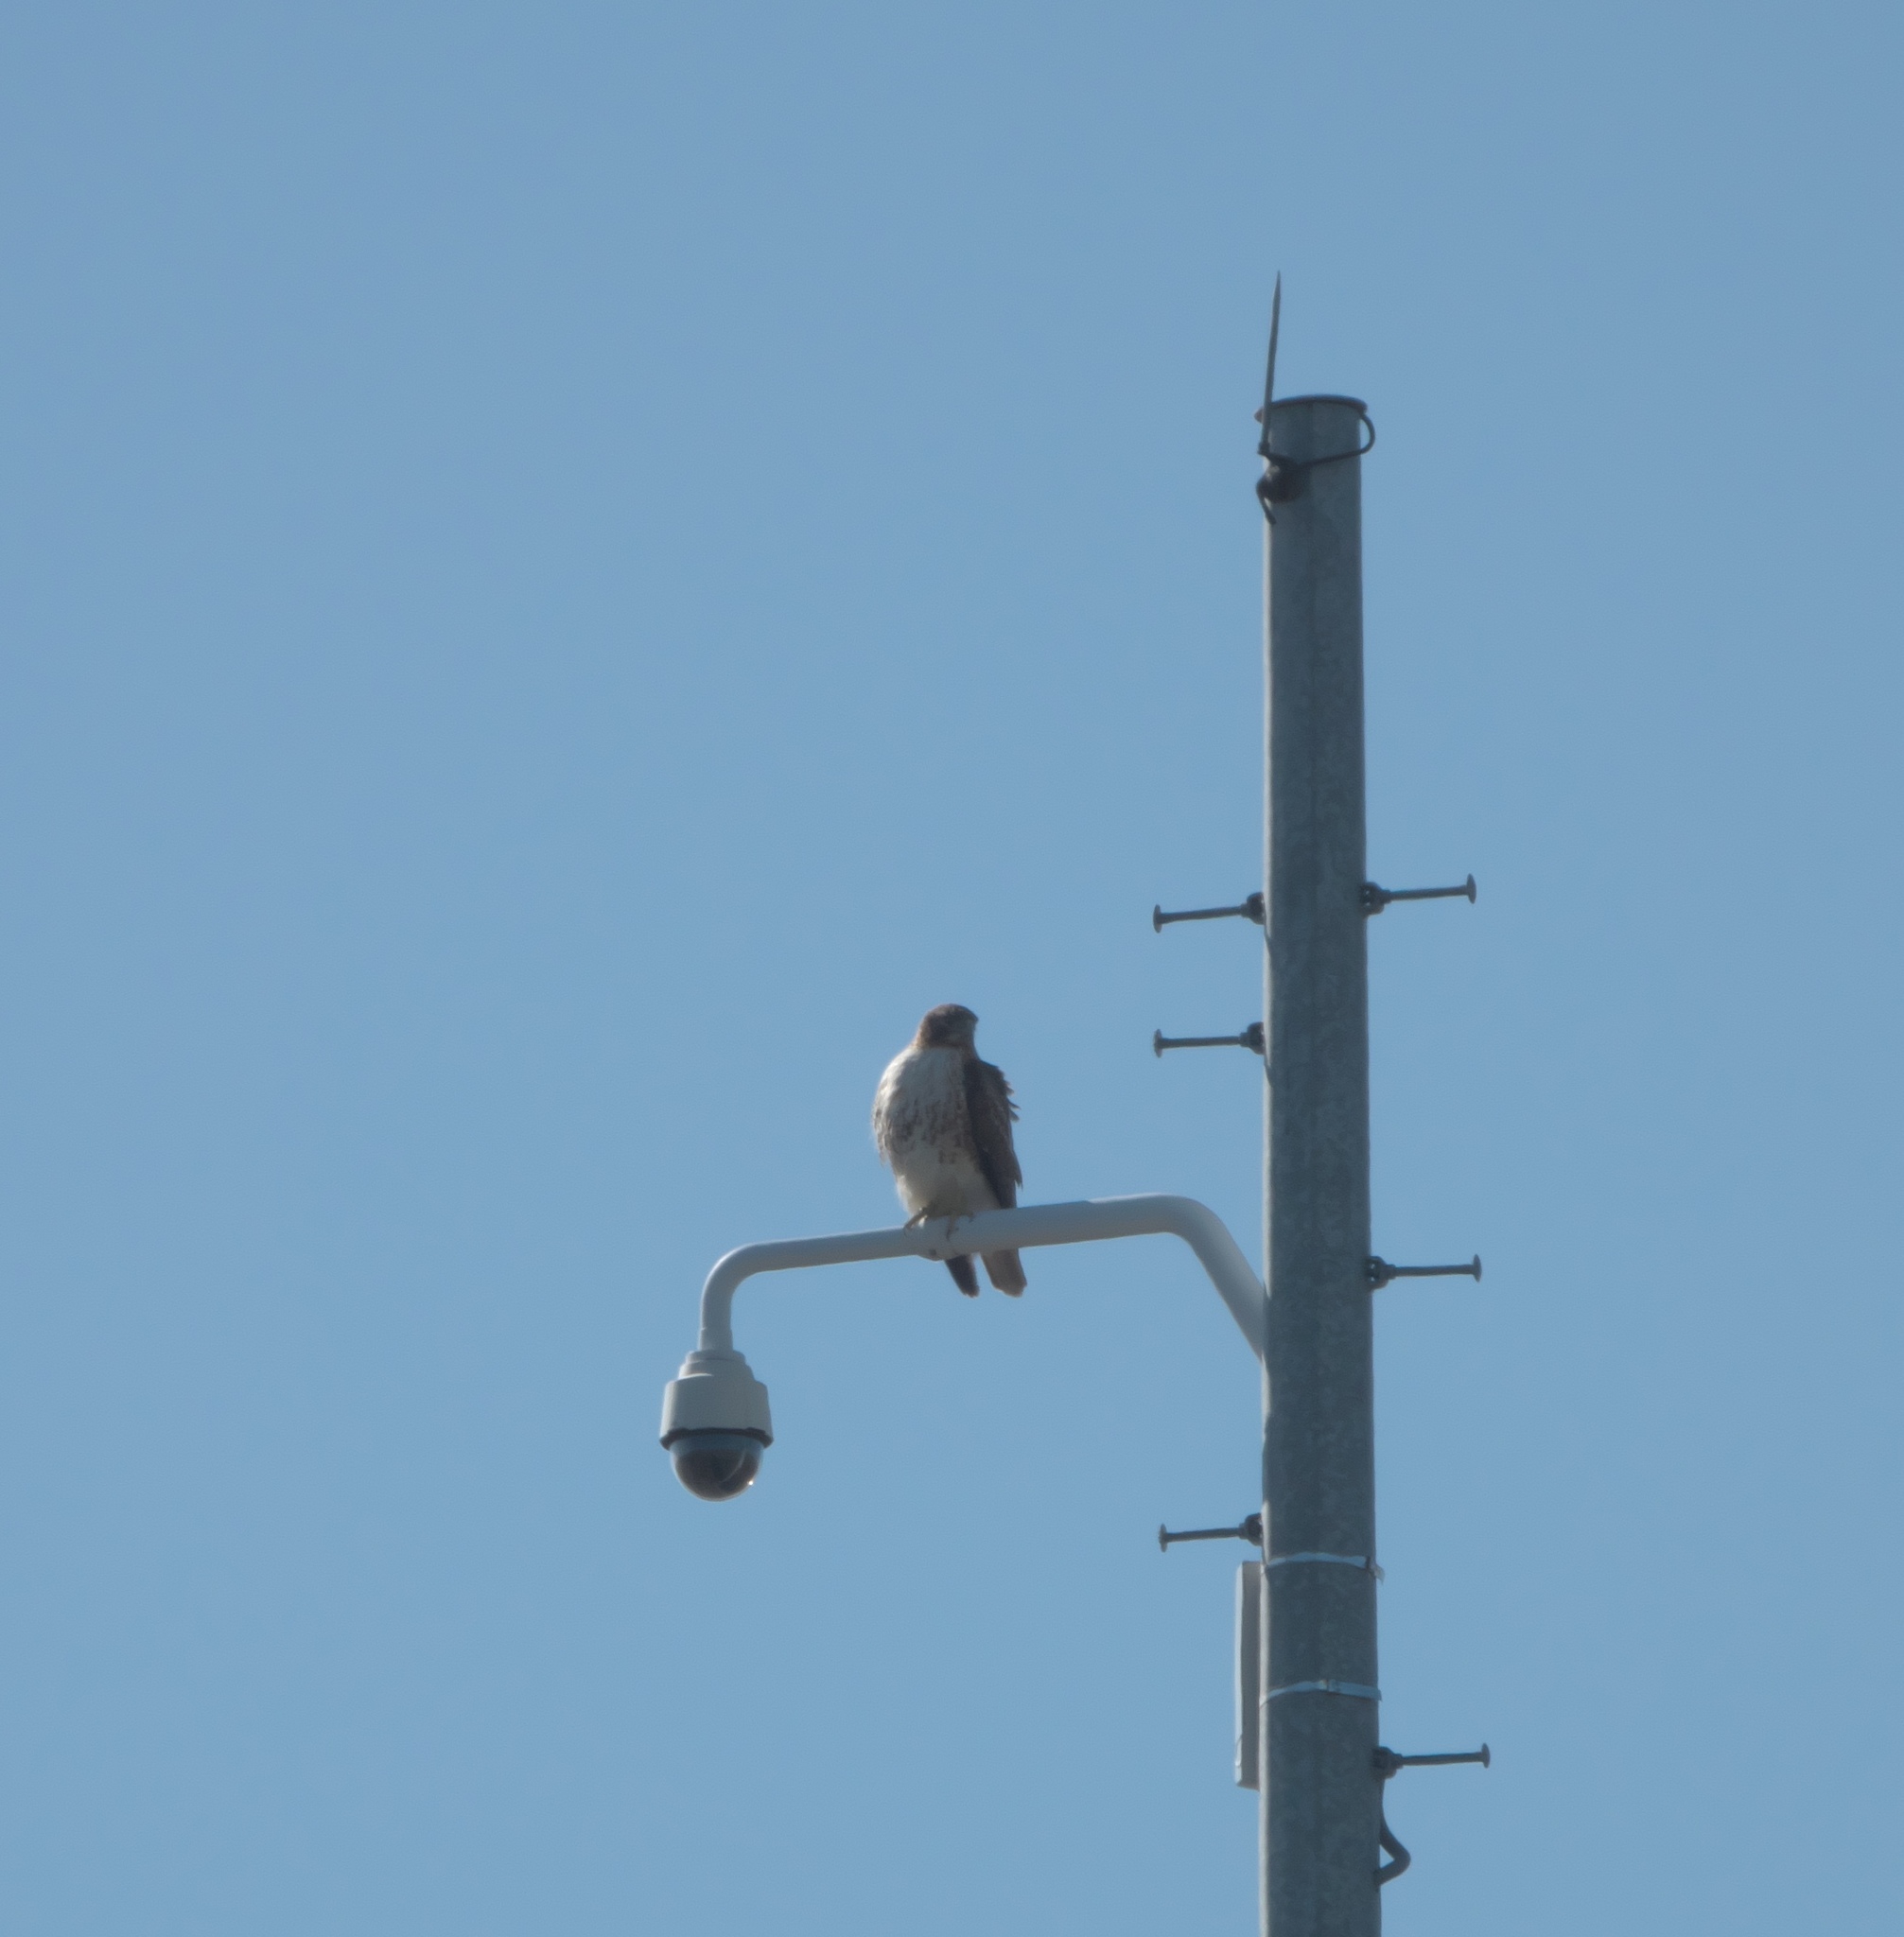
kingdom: Animalia
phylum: Chordata
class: Aves
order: Accipitriformes
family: Accipitridae
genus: Buteo
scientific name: Buteo jamaicensis
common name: Red-tailed hawk
